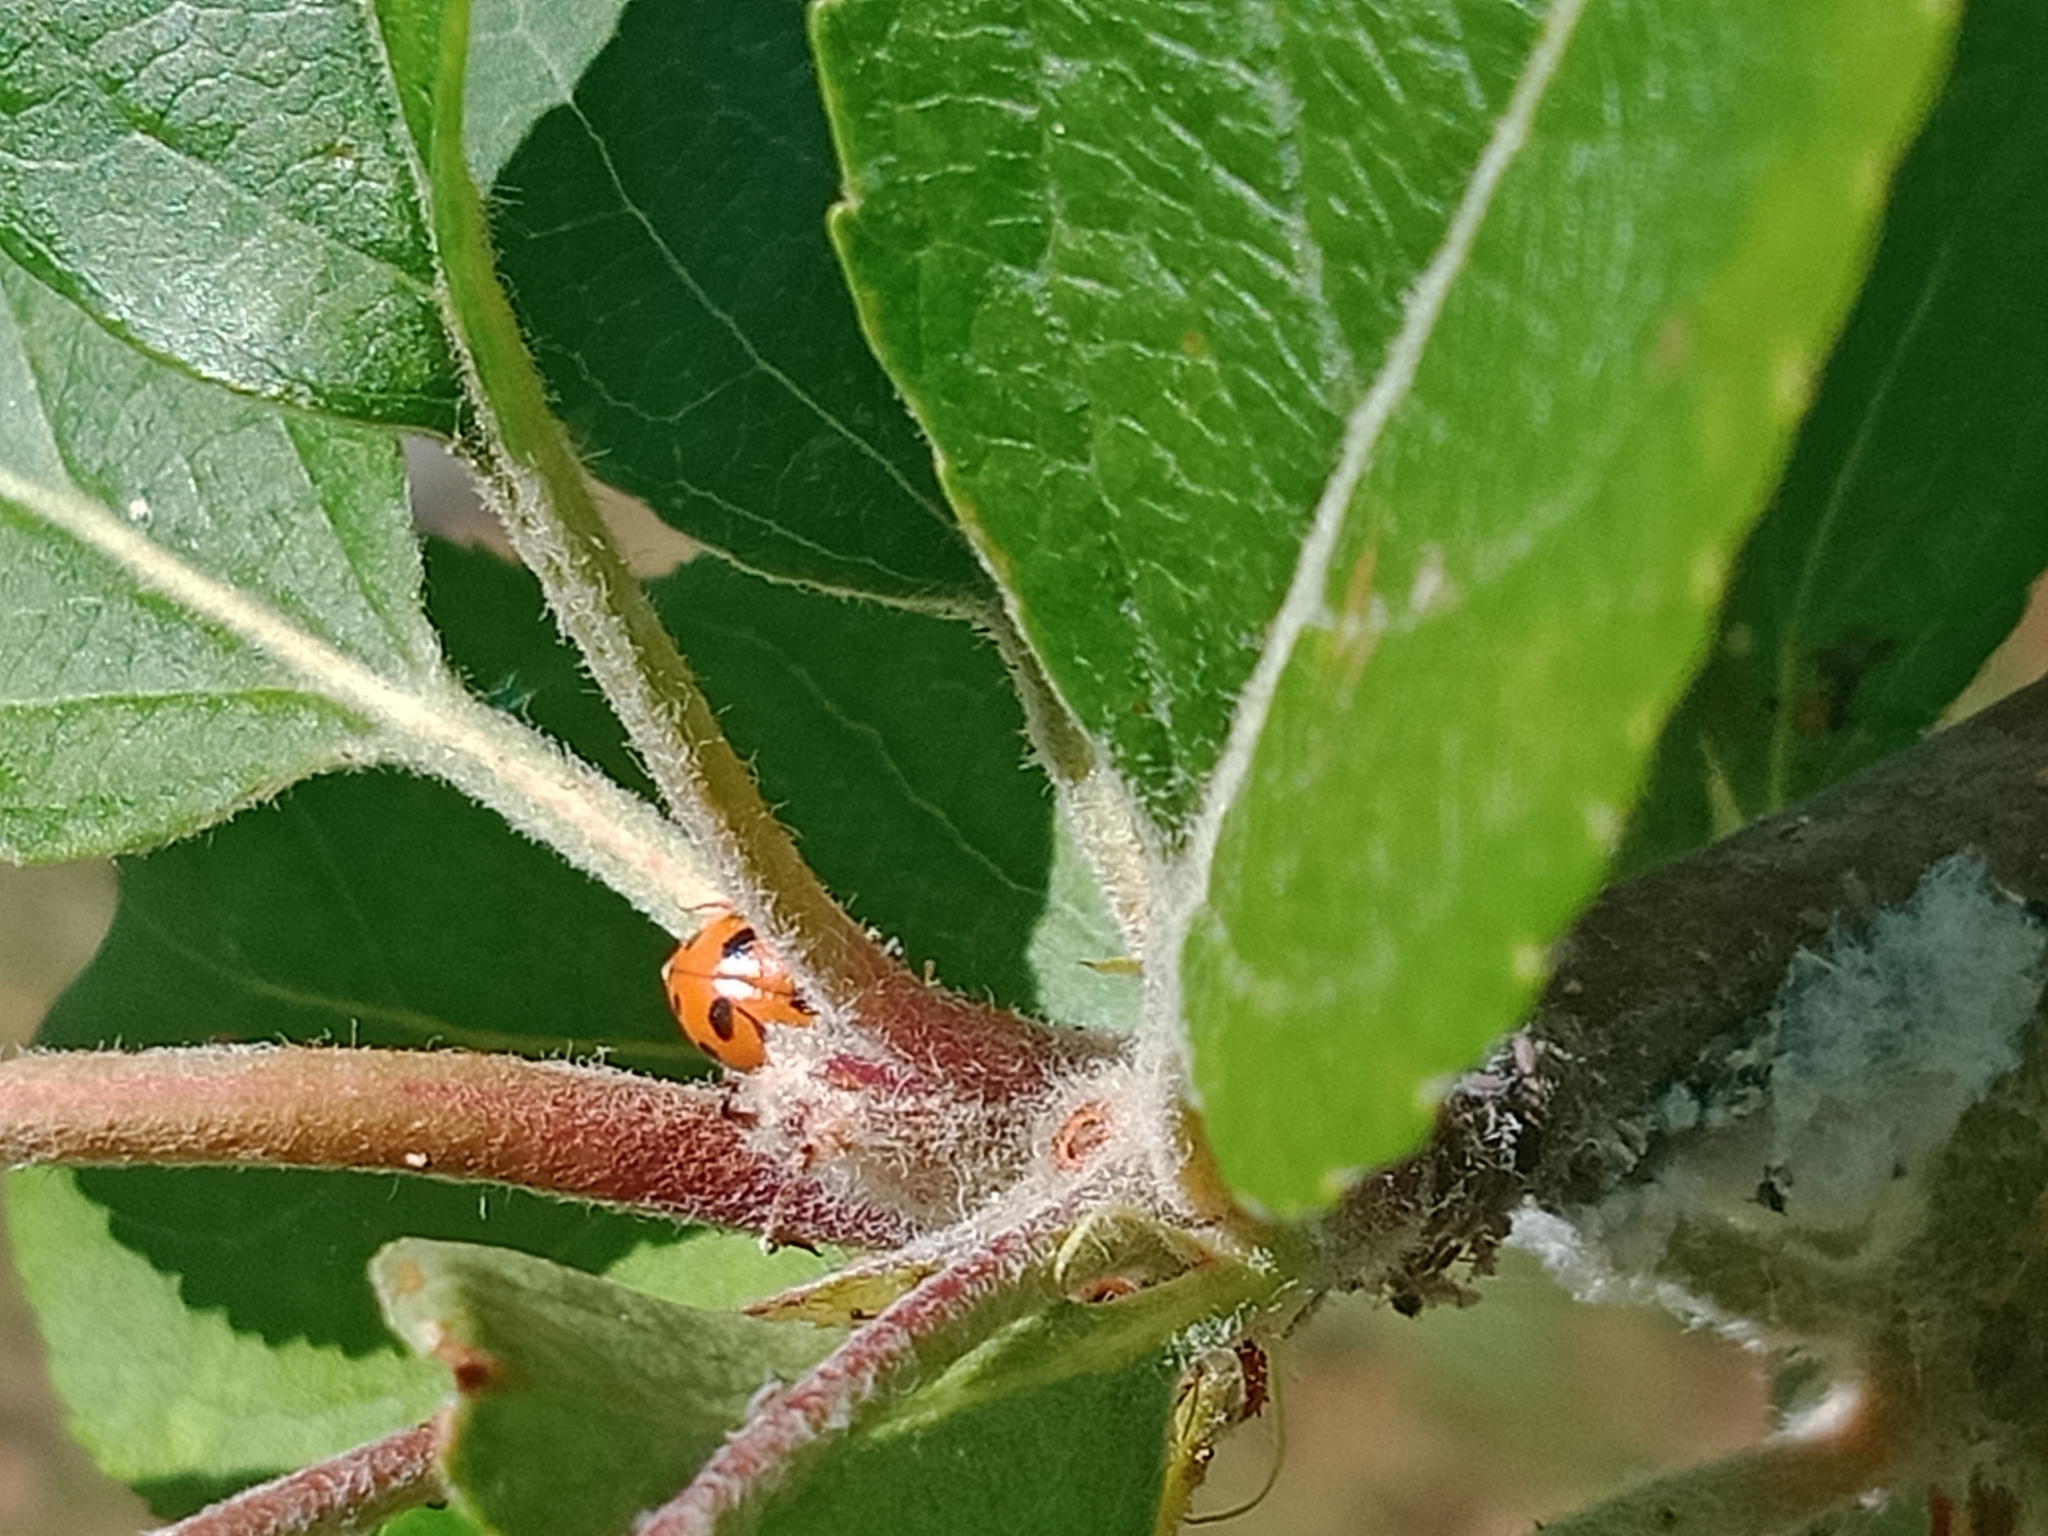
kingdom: Animalia
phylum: Arthropoda
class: Insecta
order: Coleoptera
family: Coccinellidae
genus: Hippodamia
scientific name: Hippodamia variegata
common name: Ladybird beetle
